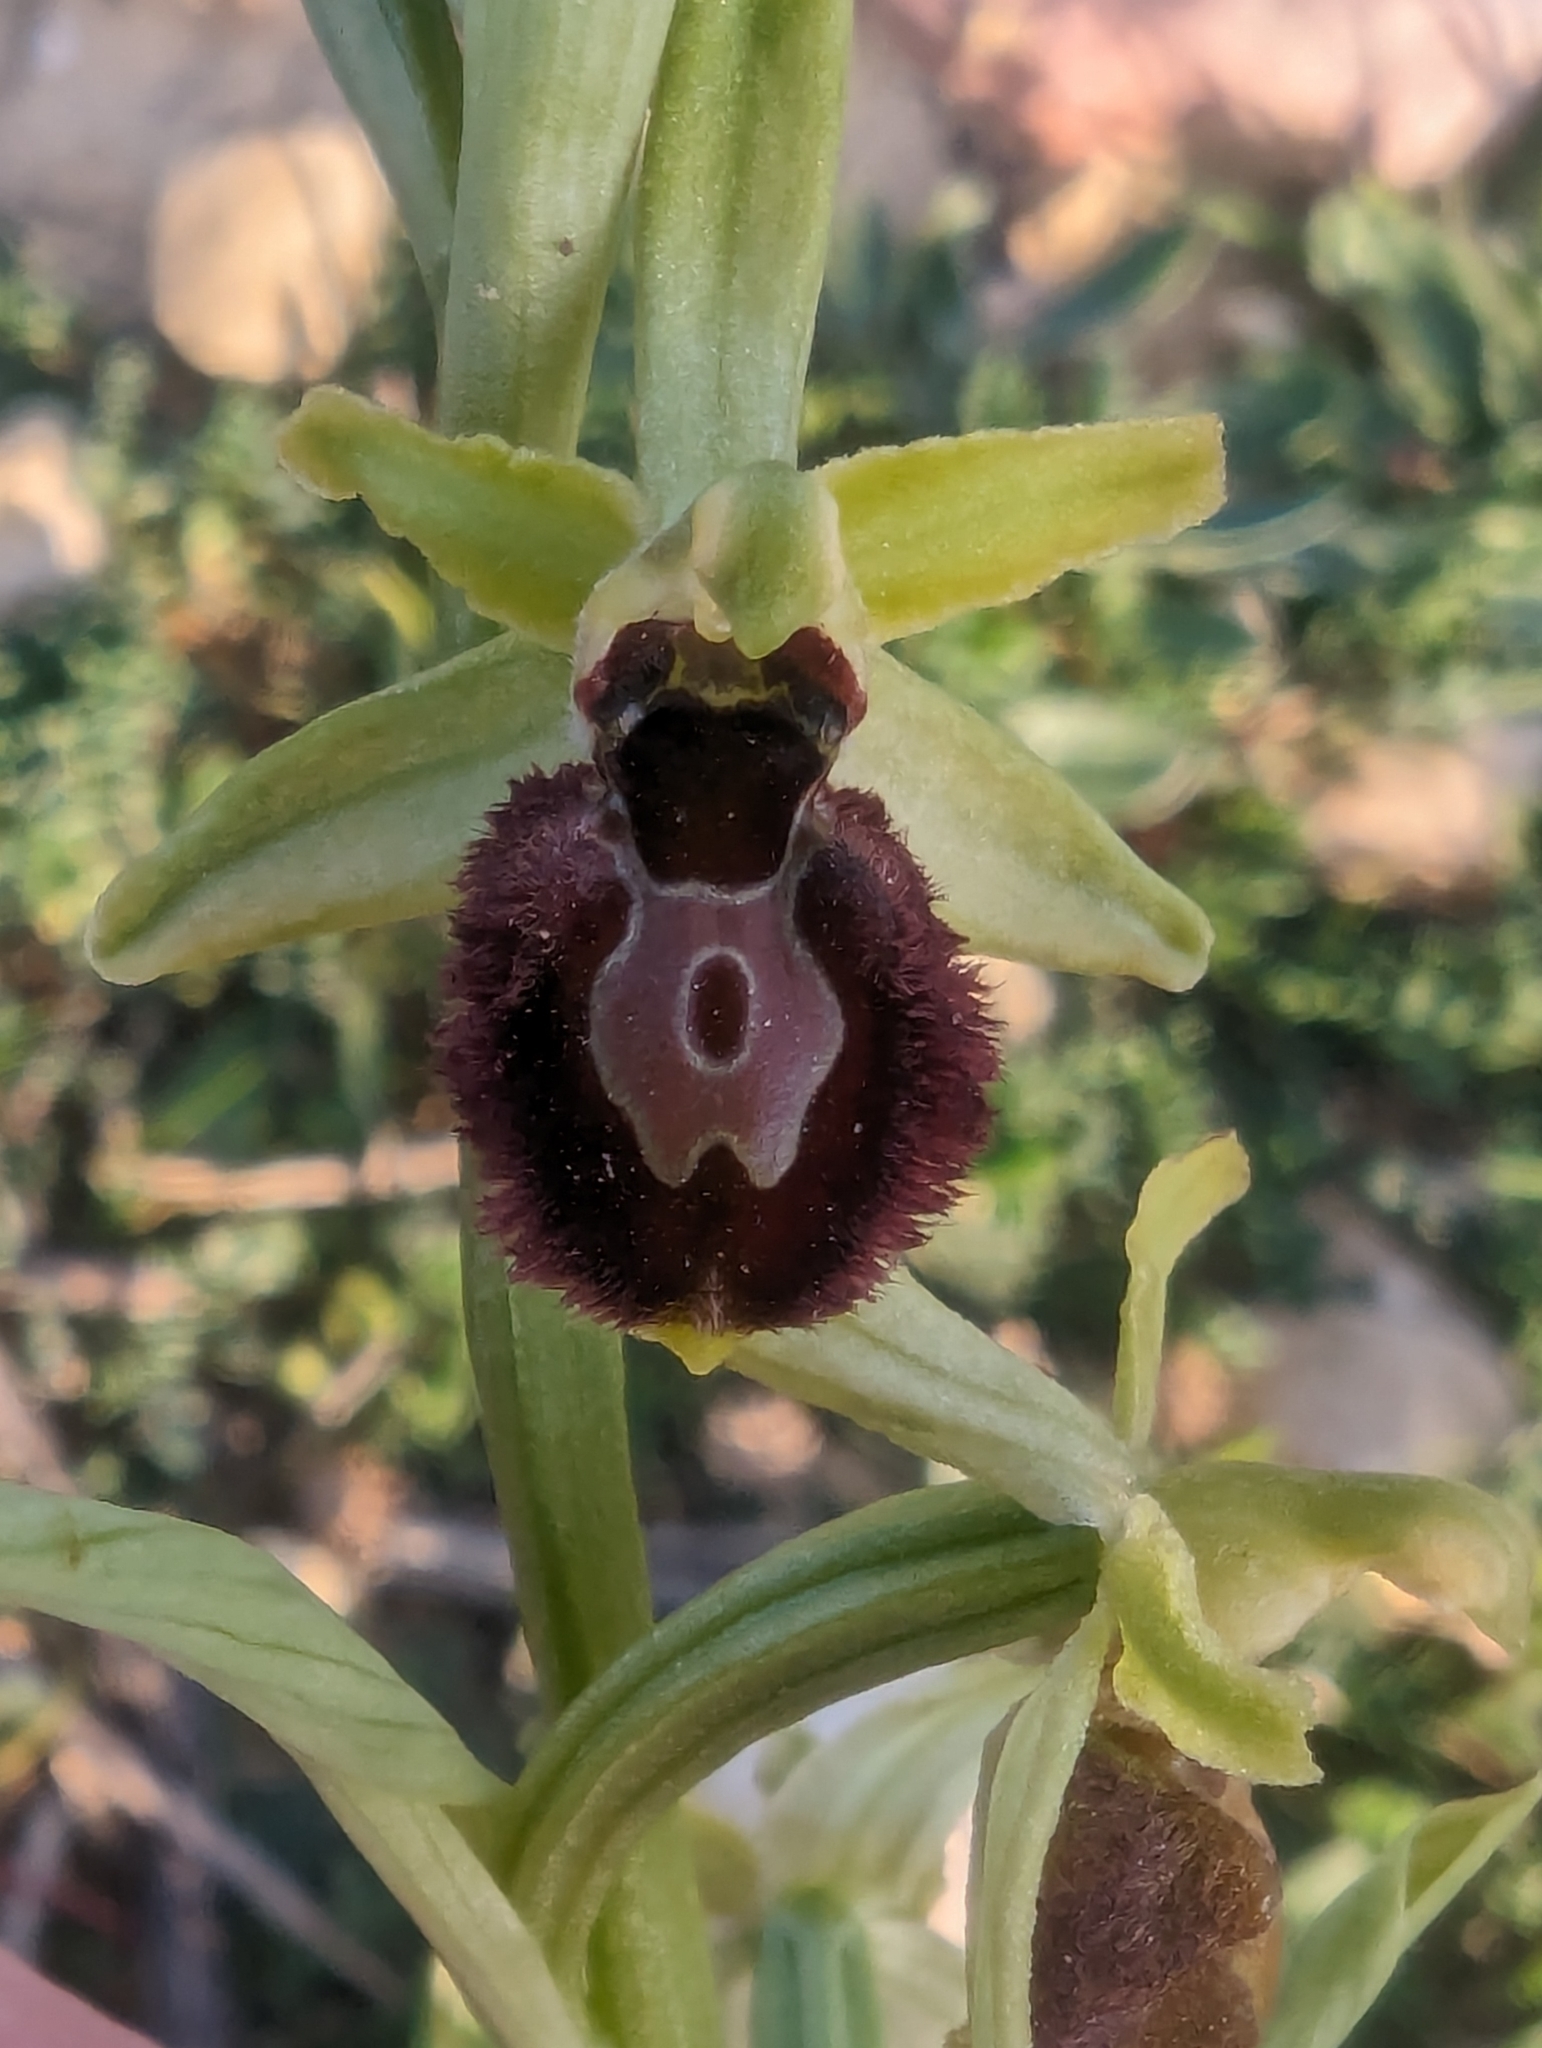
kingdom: Plantae
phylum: Tracheophyta
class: Liliopsida
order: Asparagales
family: Orchidaceae
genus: Ophrys
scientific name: Ophrys arachnitiformis
